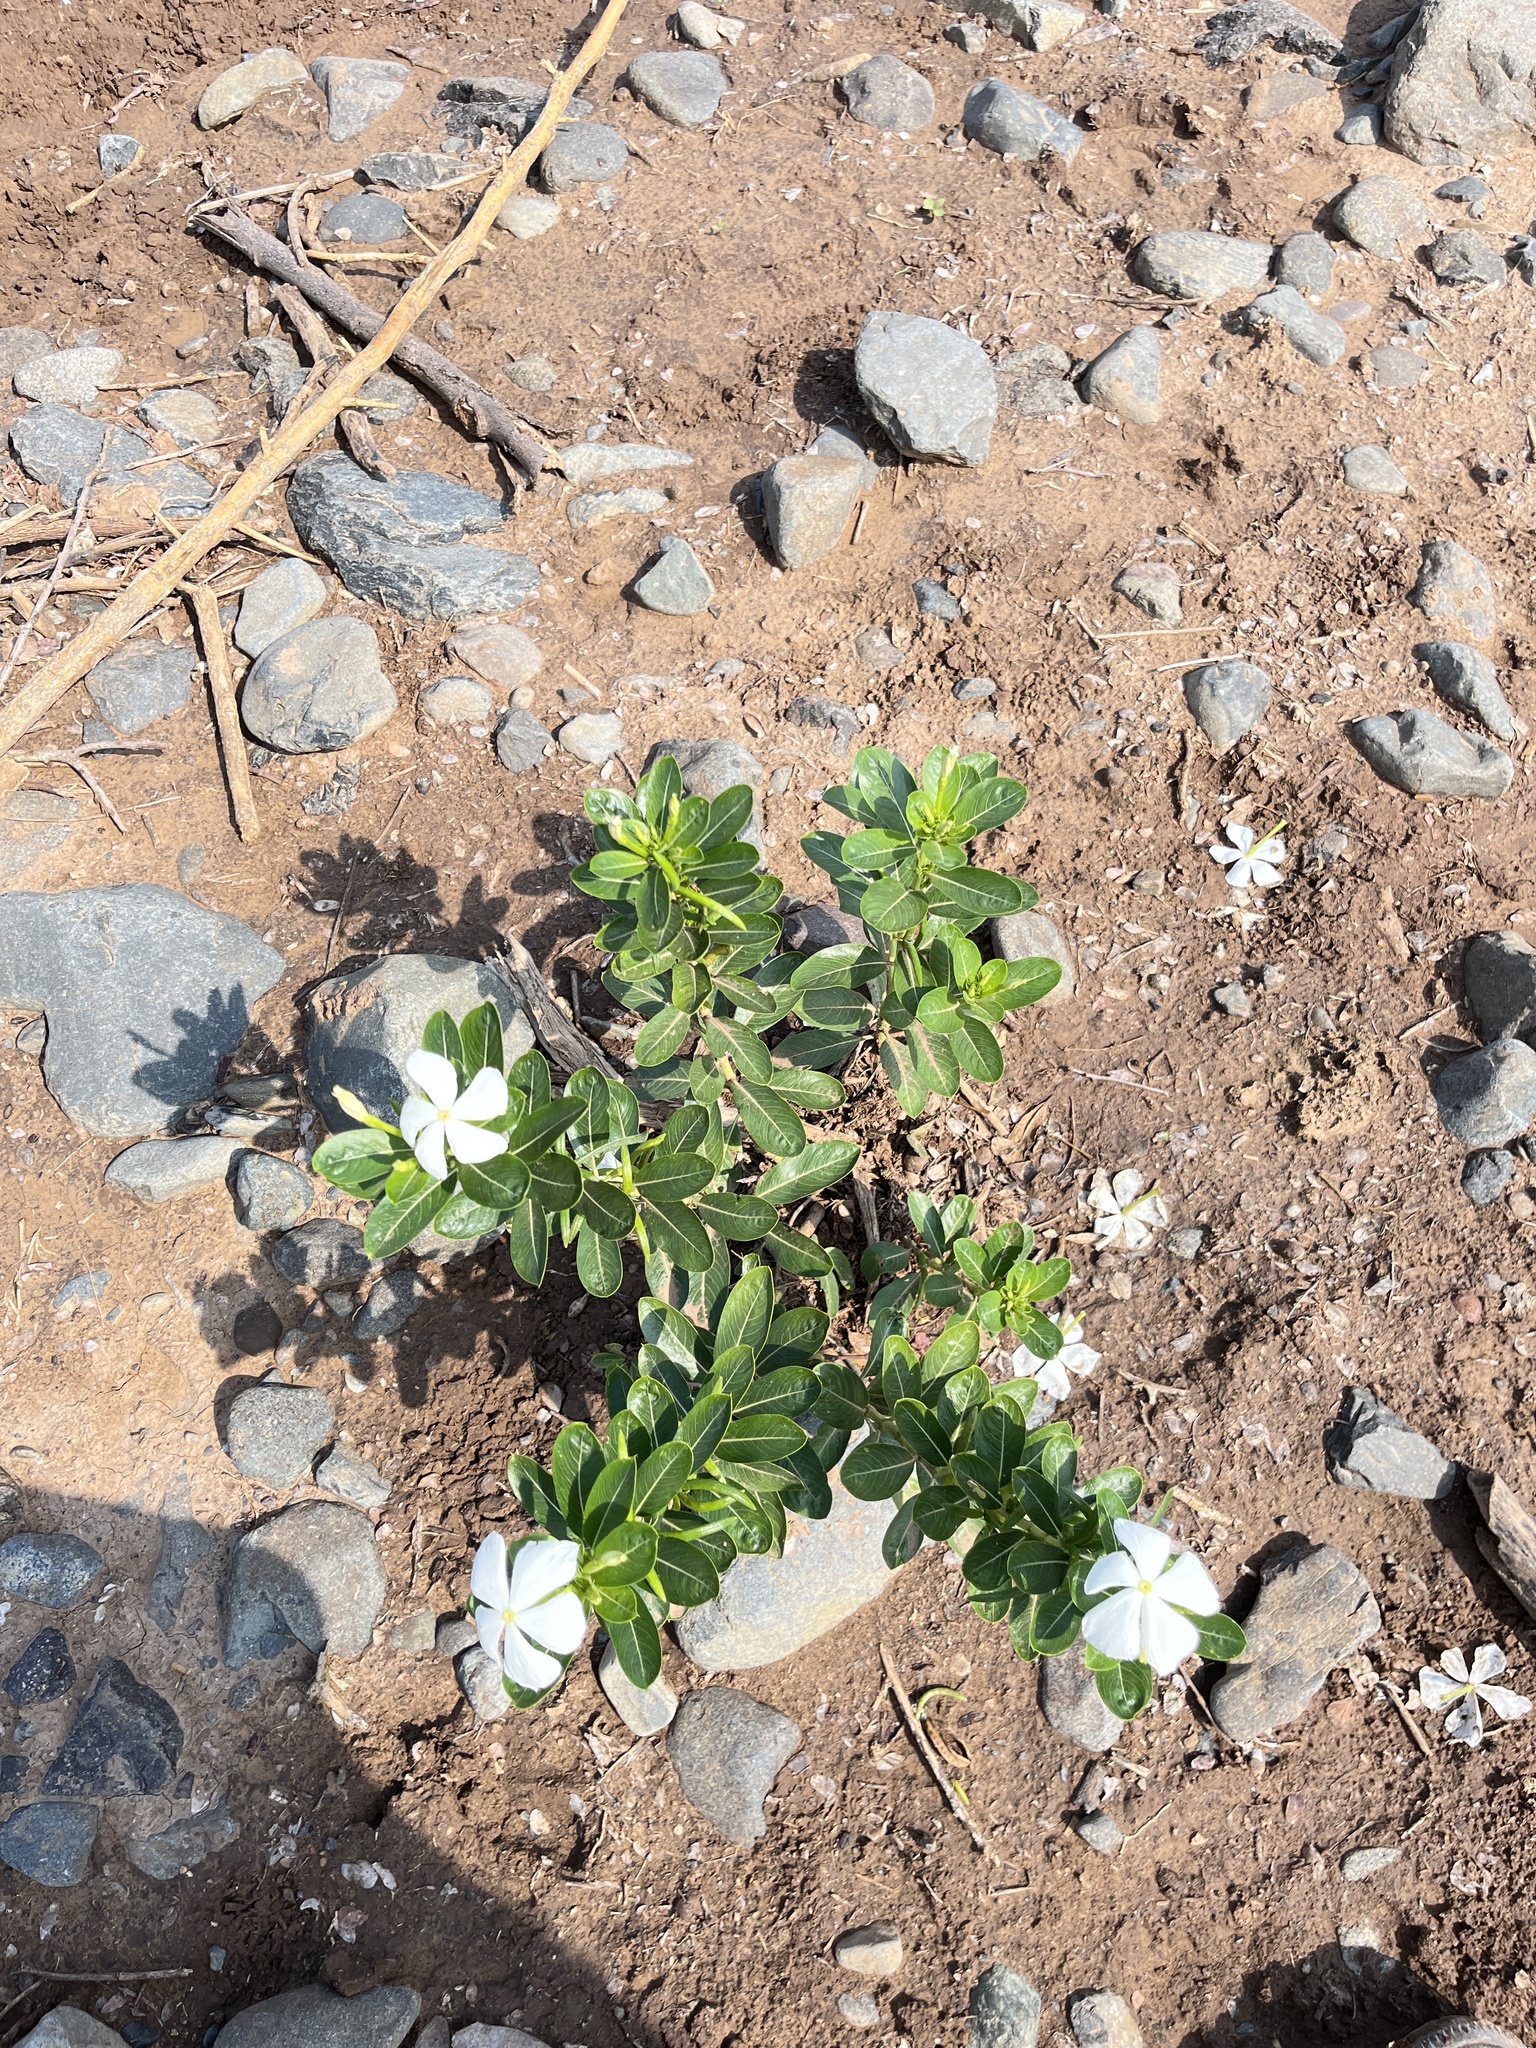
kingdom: Plantae
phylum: Tracheophyta
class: Magnoliopsida
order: Gentianales
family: Apocynaceae
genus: Catharanthus
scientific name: Catharanthus roseus
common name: Madagascar periwinkle
